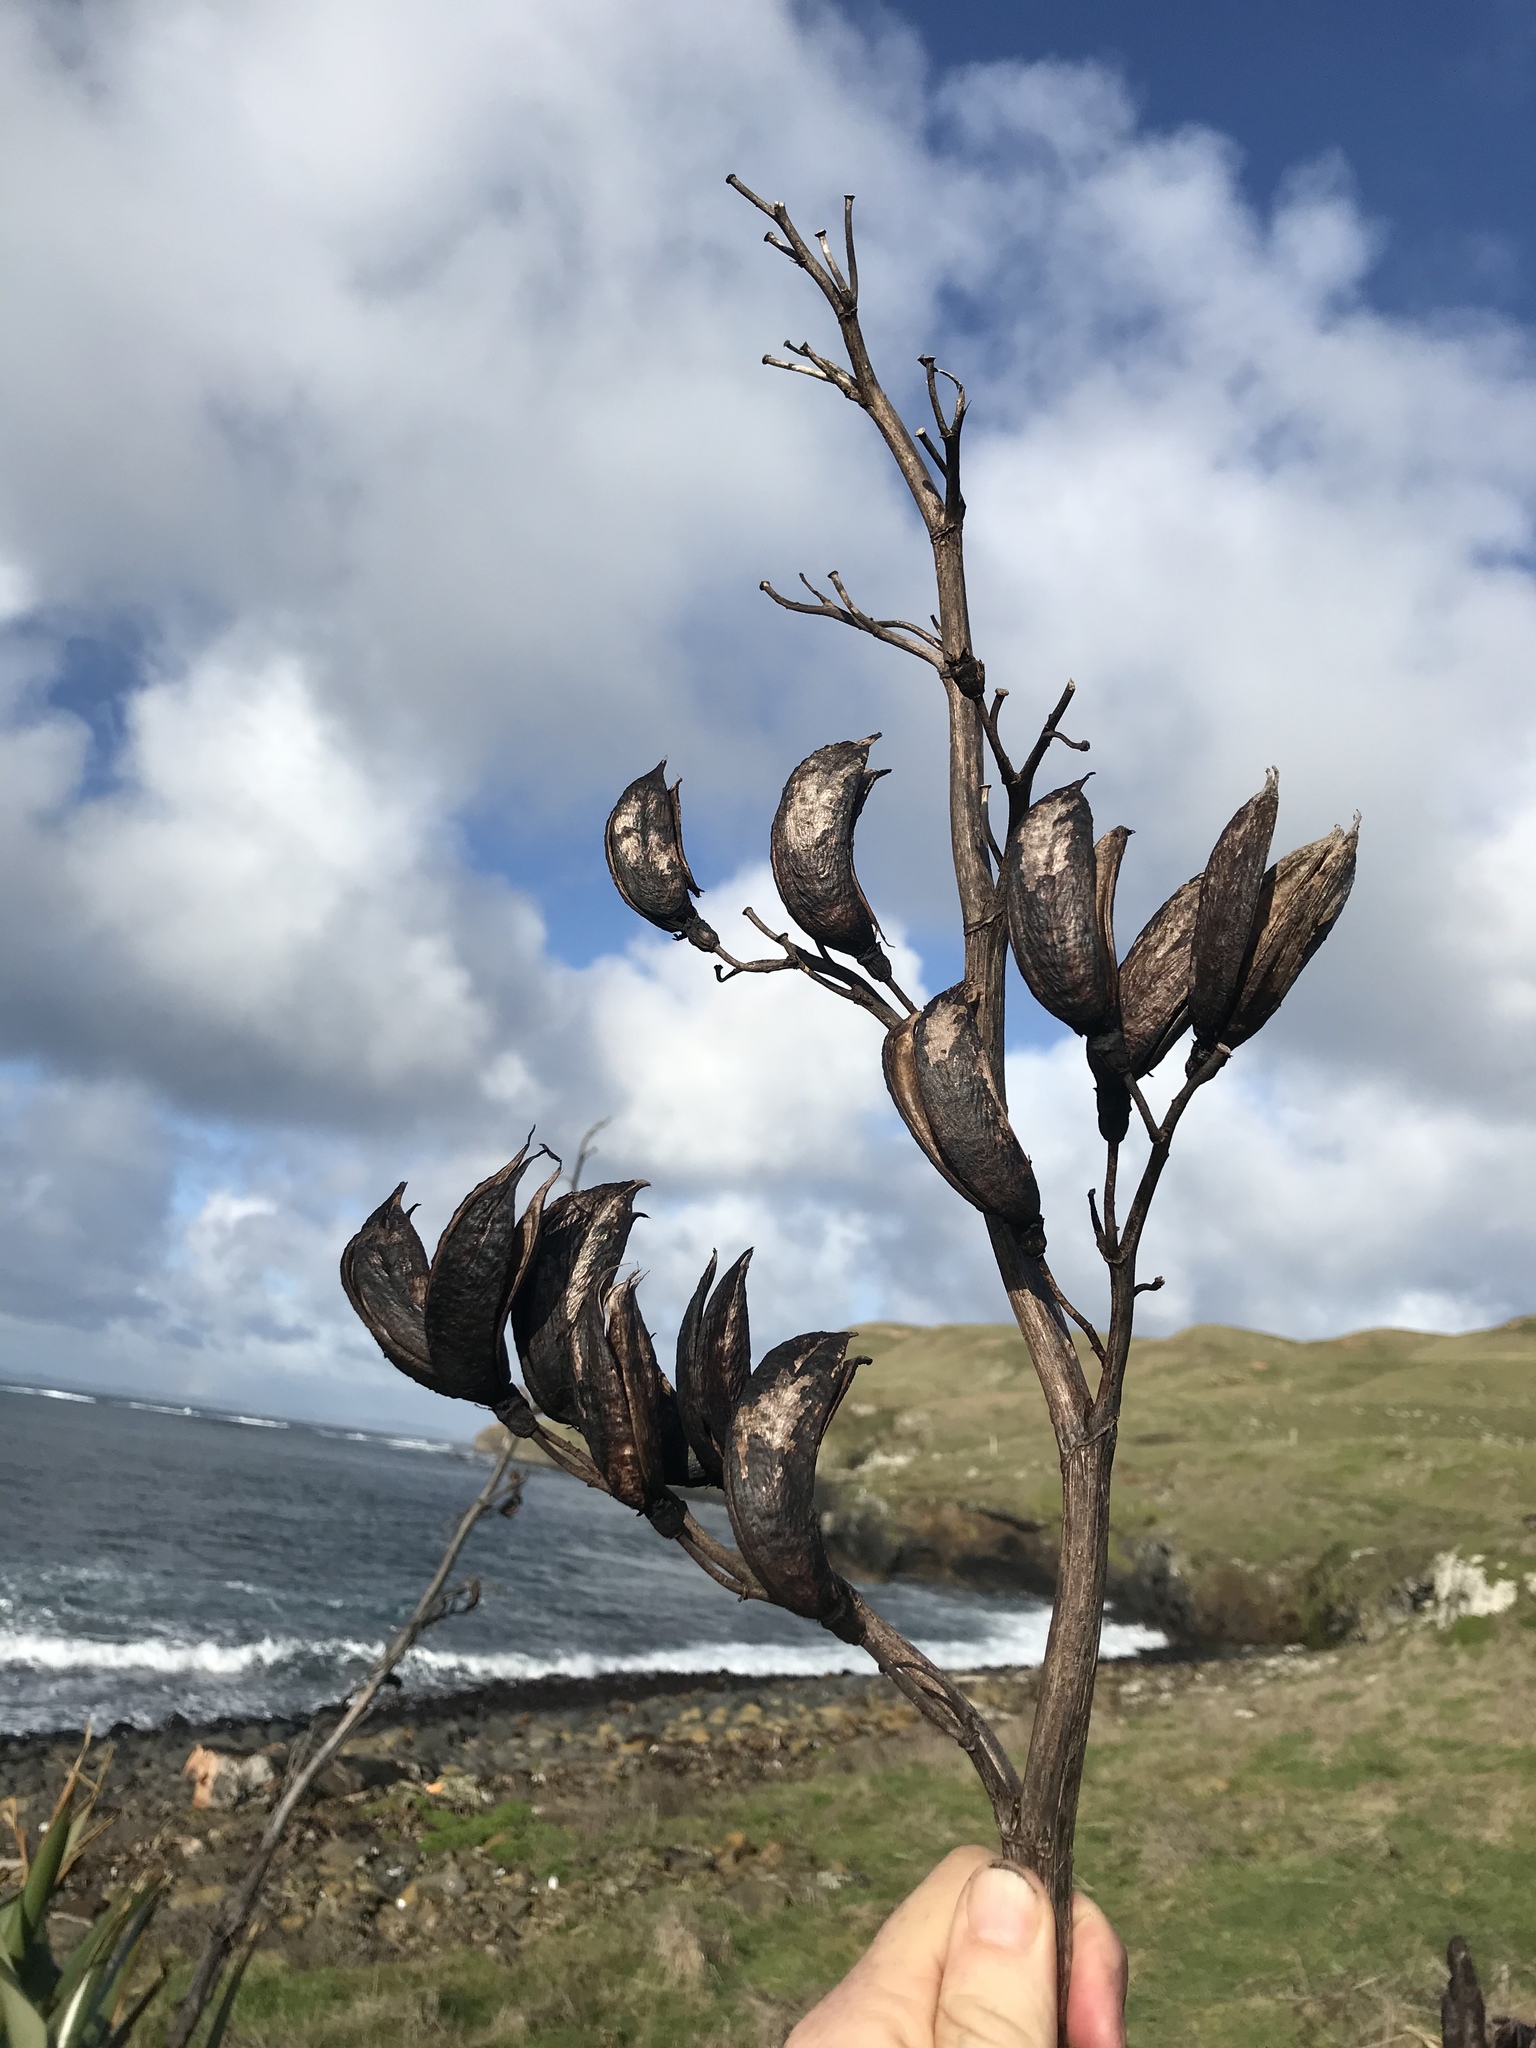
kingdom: Plantae
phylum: Tracheophyta
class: Liliopsida
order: Asparagales
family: Asphodelaceae
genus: Phormium
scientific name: Phormium tenax
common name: New zealand flax
